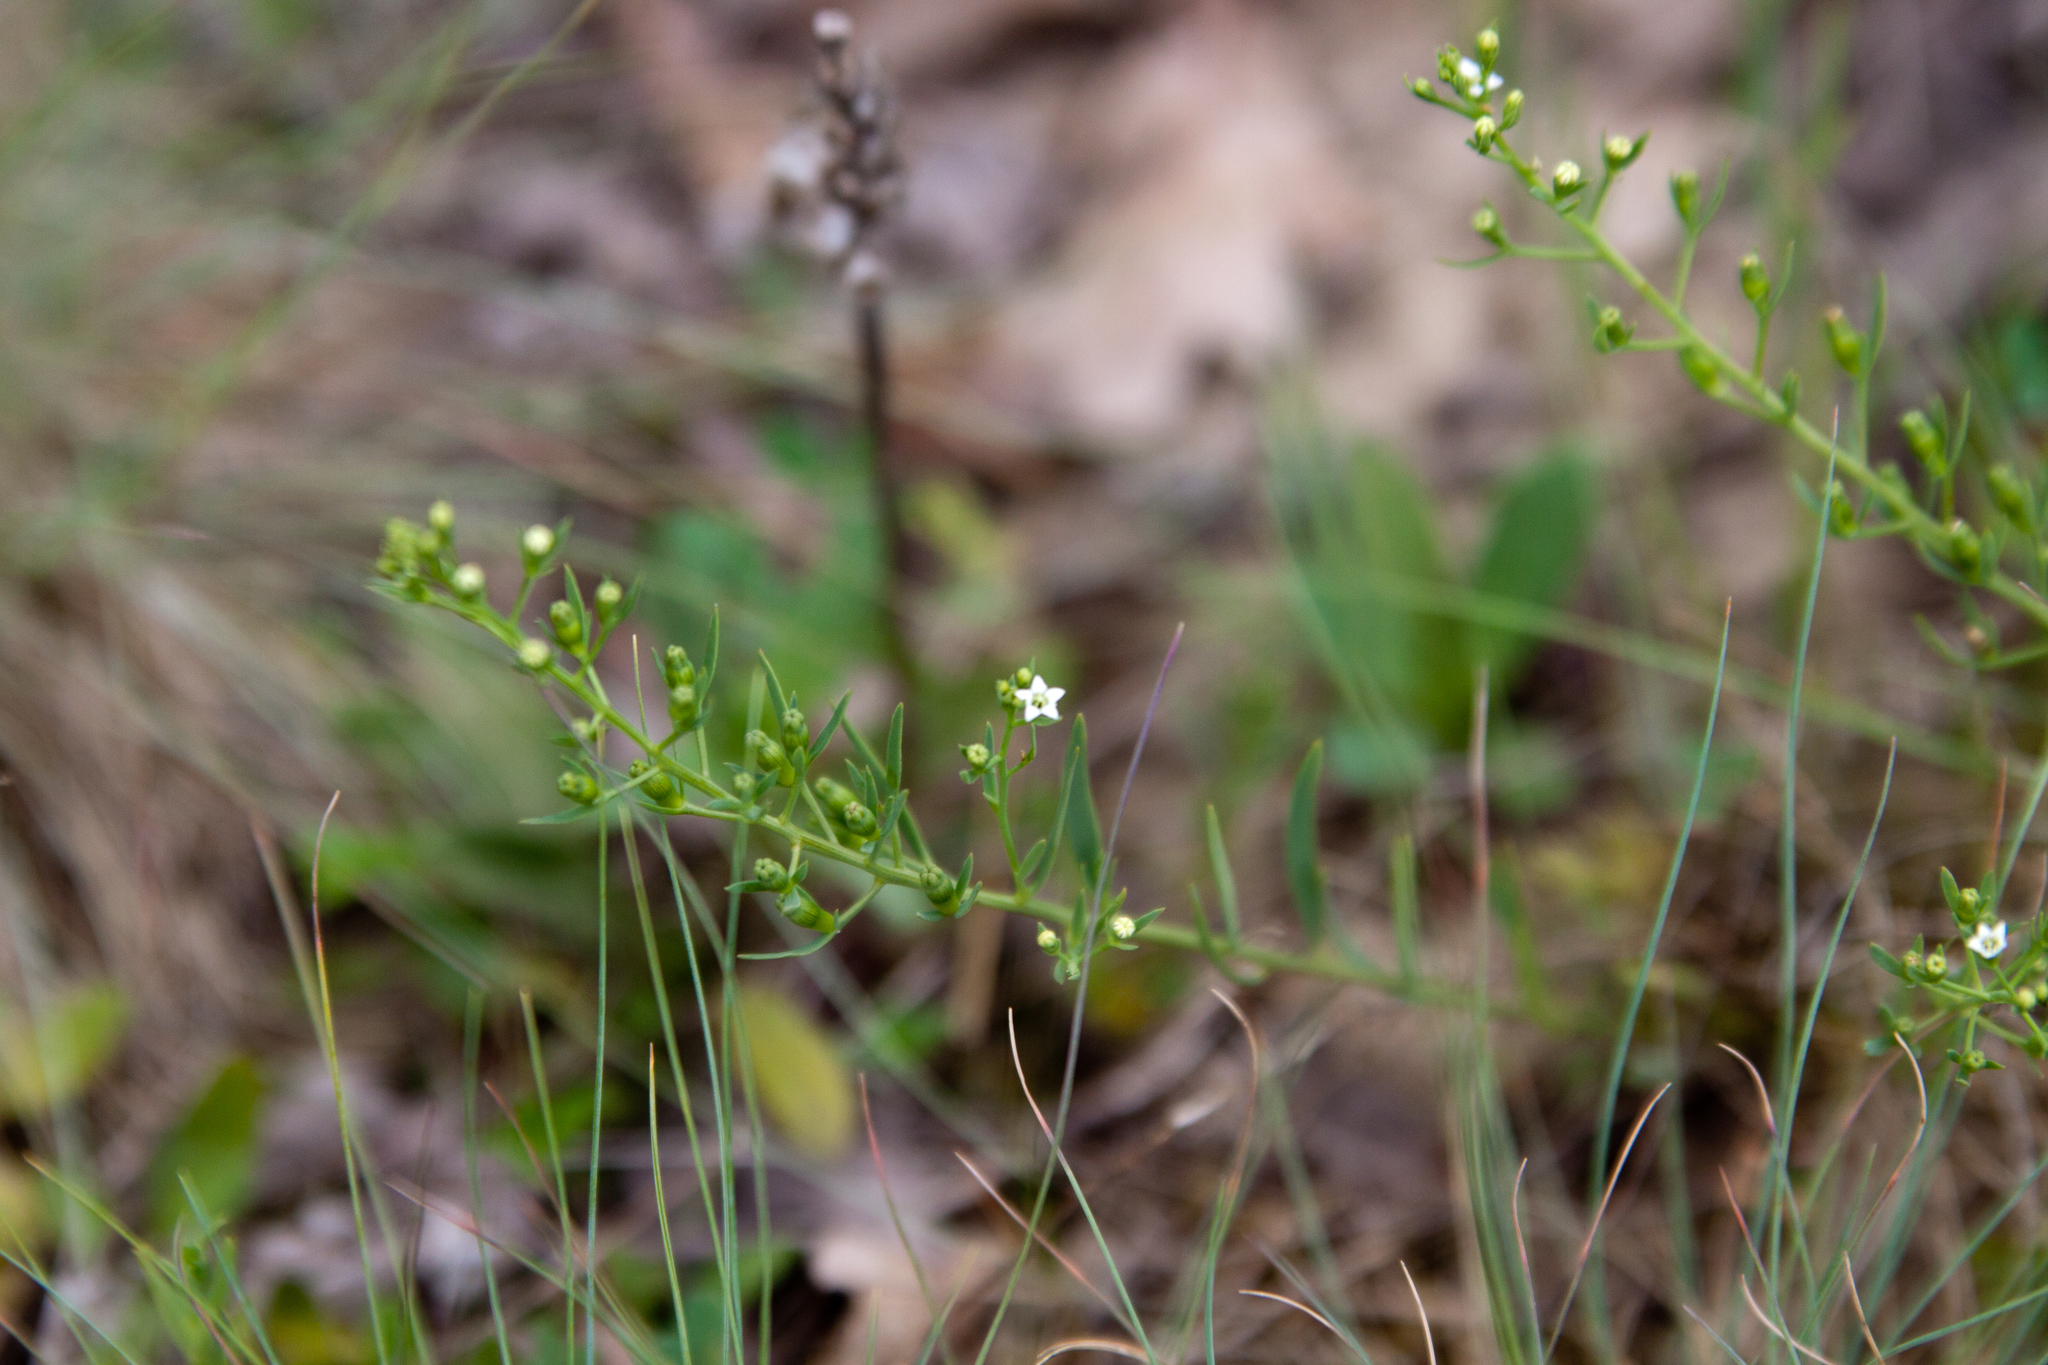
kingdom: Plantae
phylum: Tracheophyta
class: Magnoliopsida
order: Santalales
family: Thesiaceae
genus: Thesium
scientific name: Thesium ramosum
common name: Field thesium
